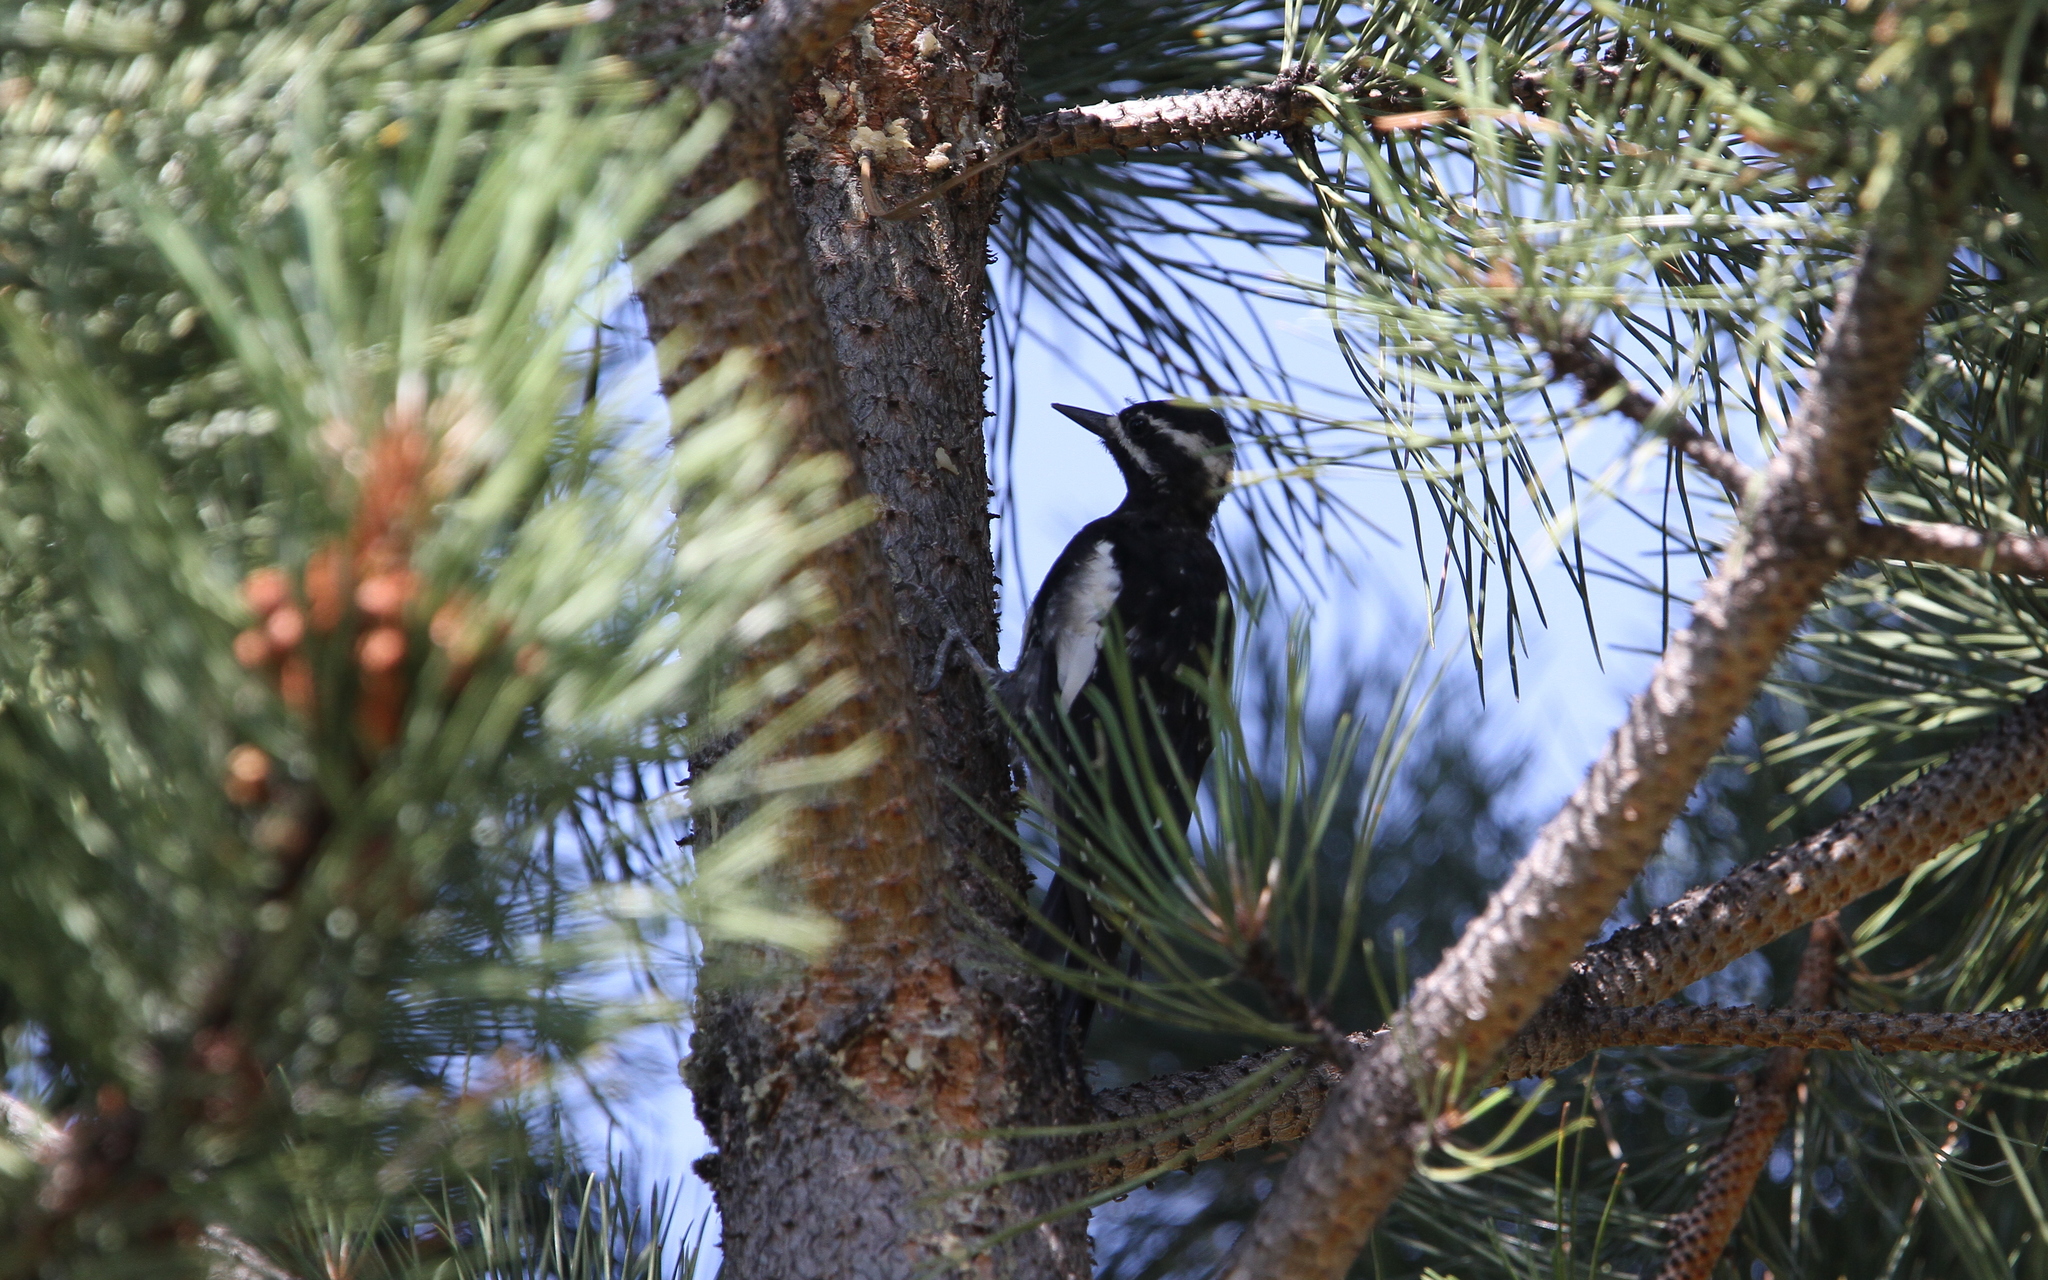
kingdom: Animalia
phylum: Chordata
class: Aves
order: Piciformes
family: Picidae
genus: Sphyrapicus
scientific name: Sphyrapicus thyroideus
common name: Williamson's sapsucker
